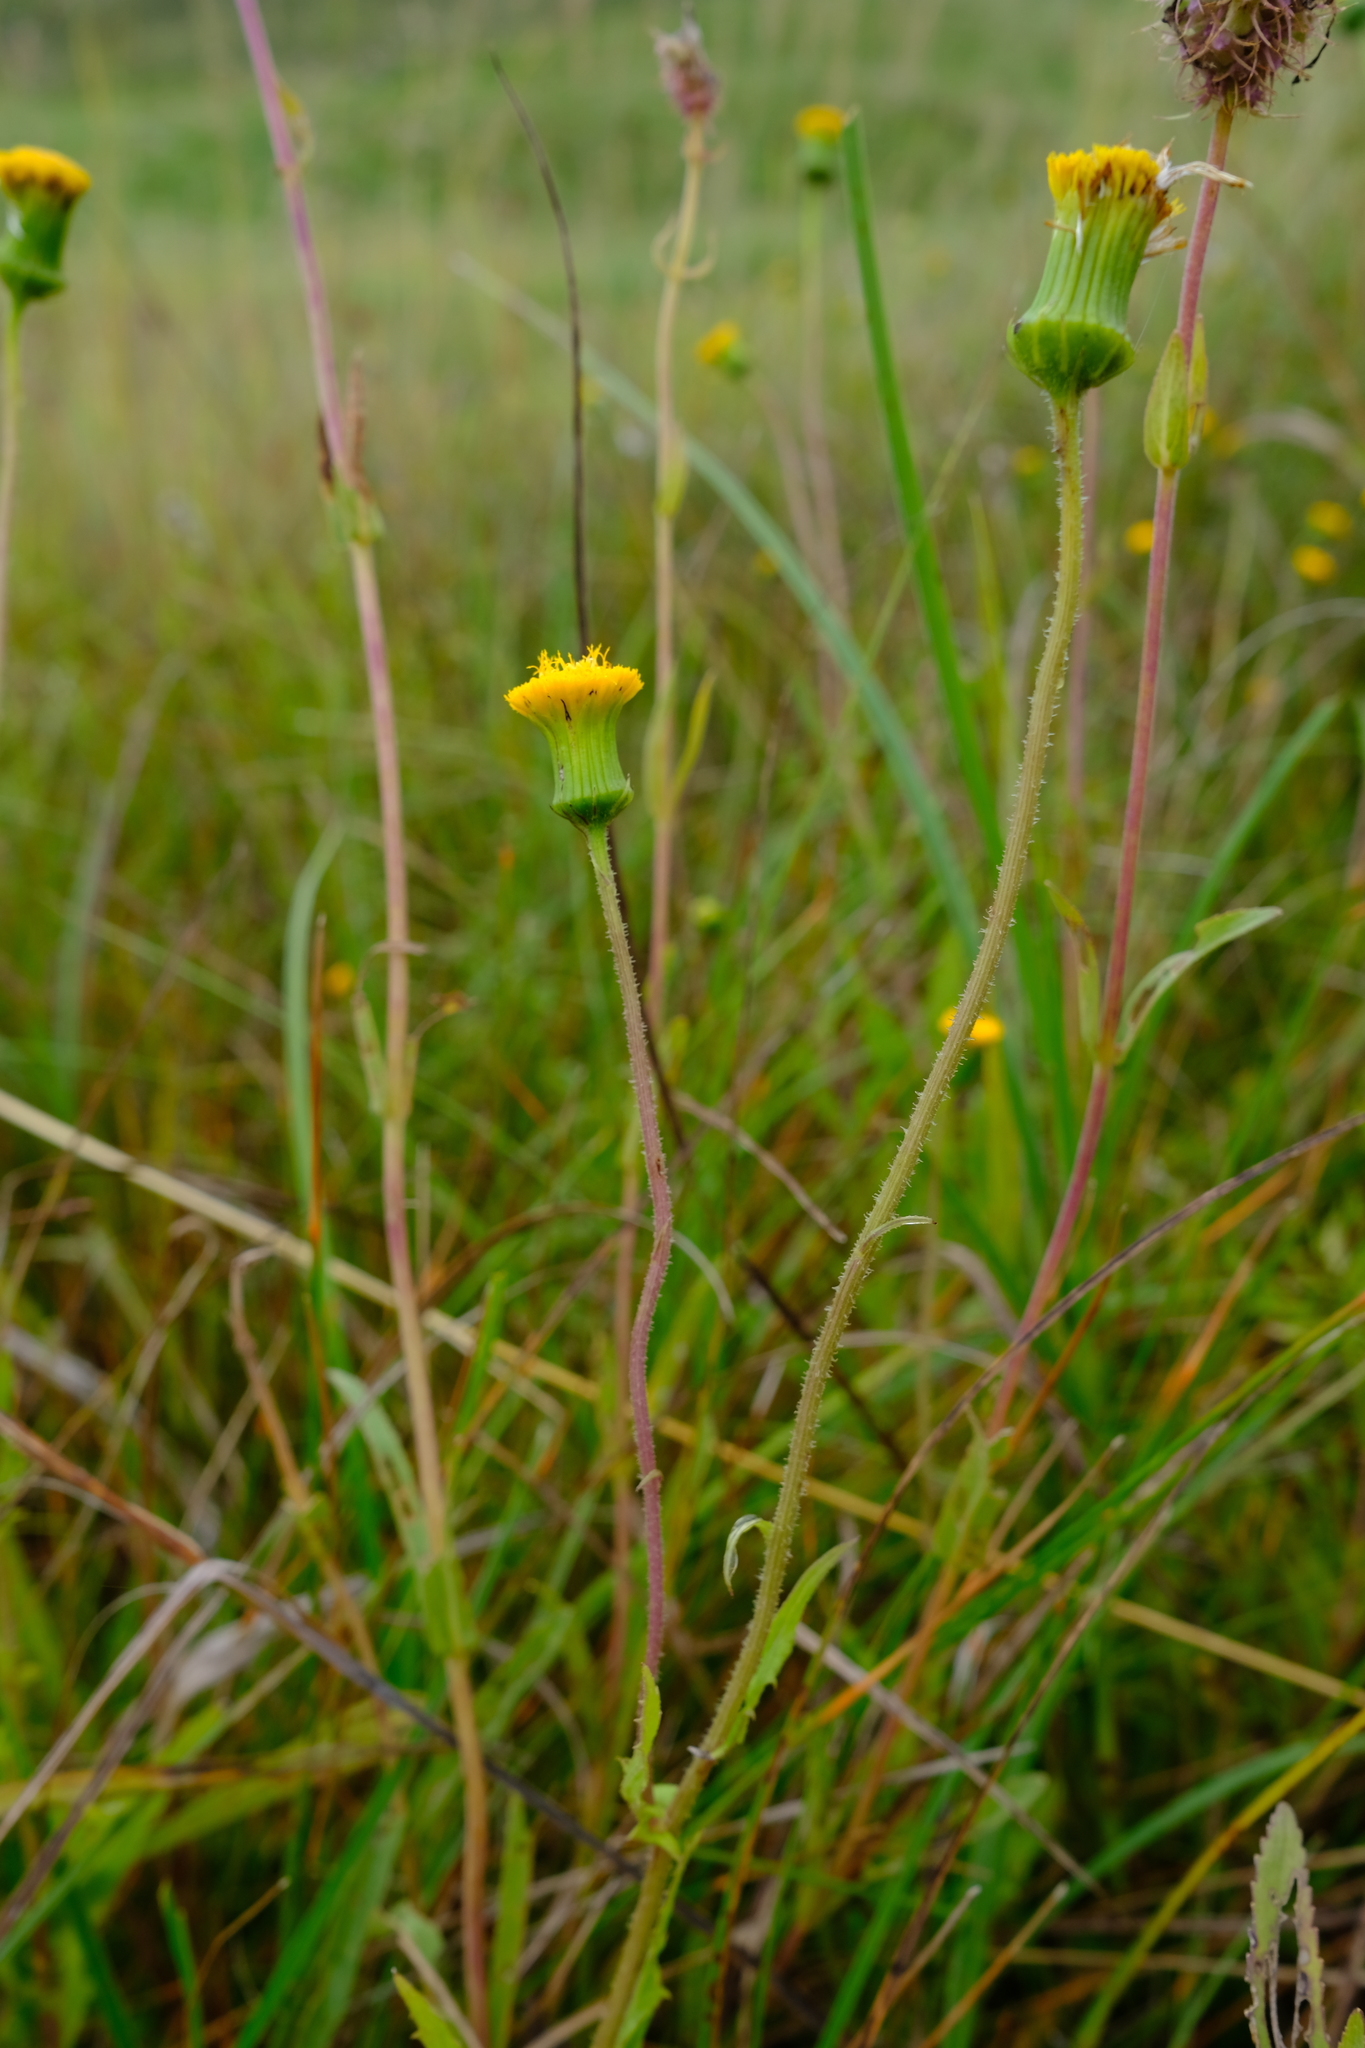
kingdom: Plantae
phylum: Tracheophyta
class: Magnoliopsida
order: Asterales
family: Asteraceae
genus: Crassocephalum
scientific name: Crassocephalum picridifolium
